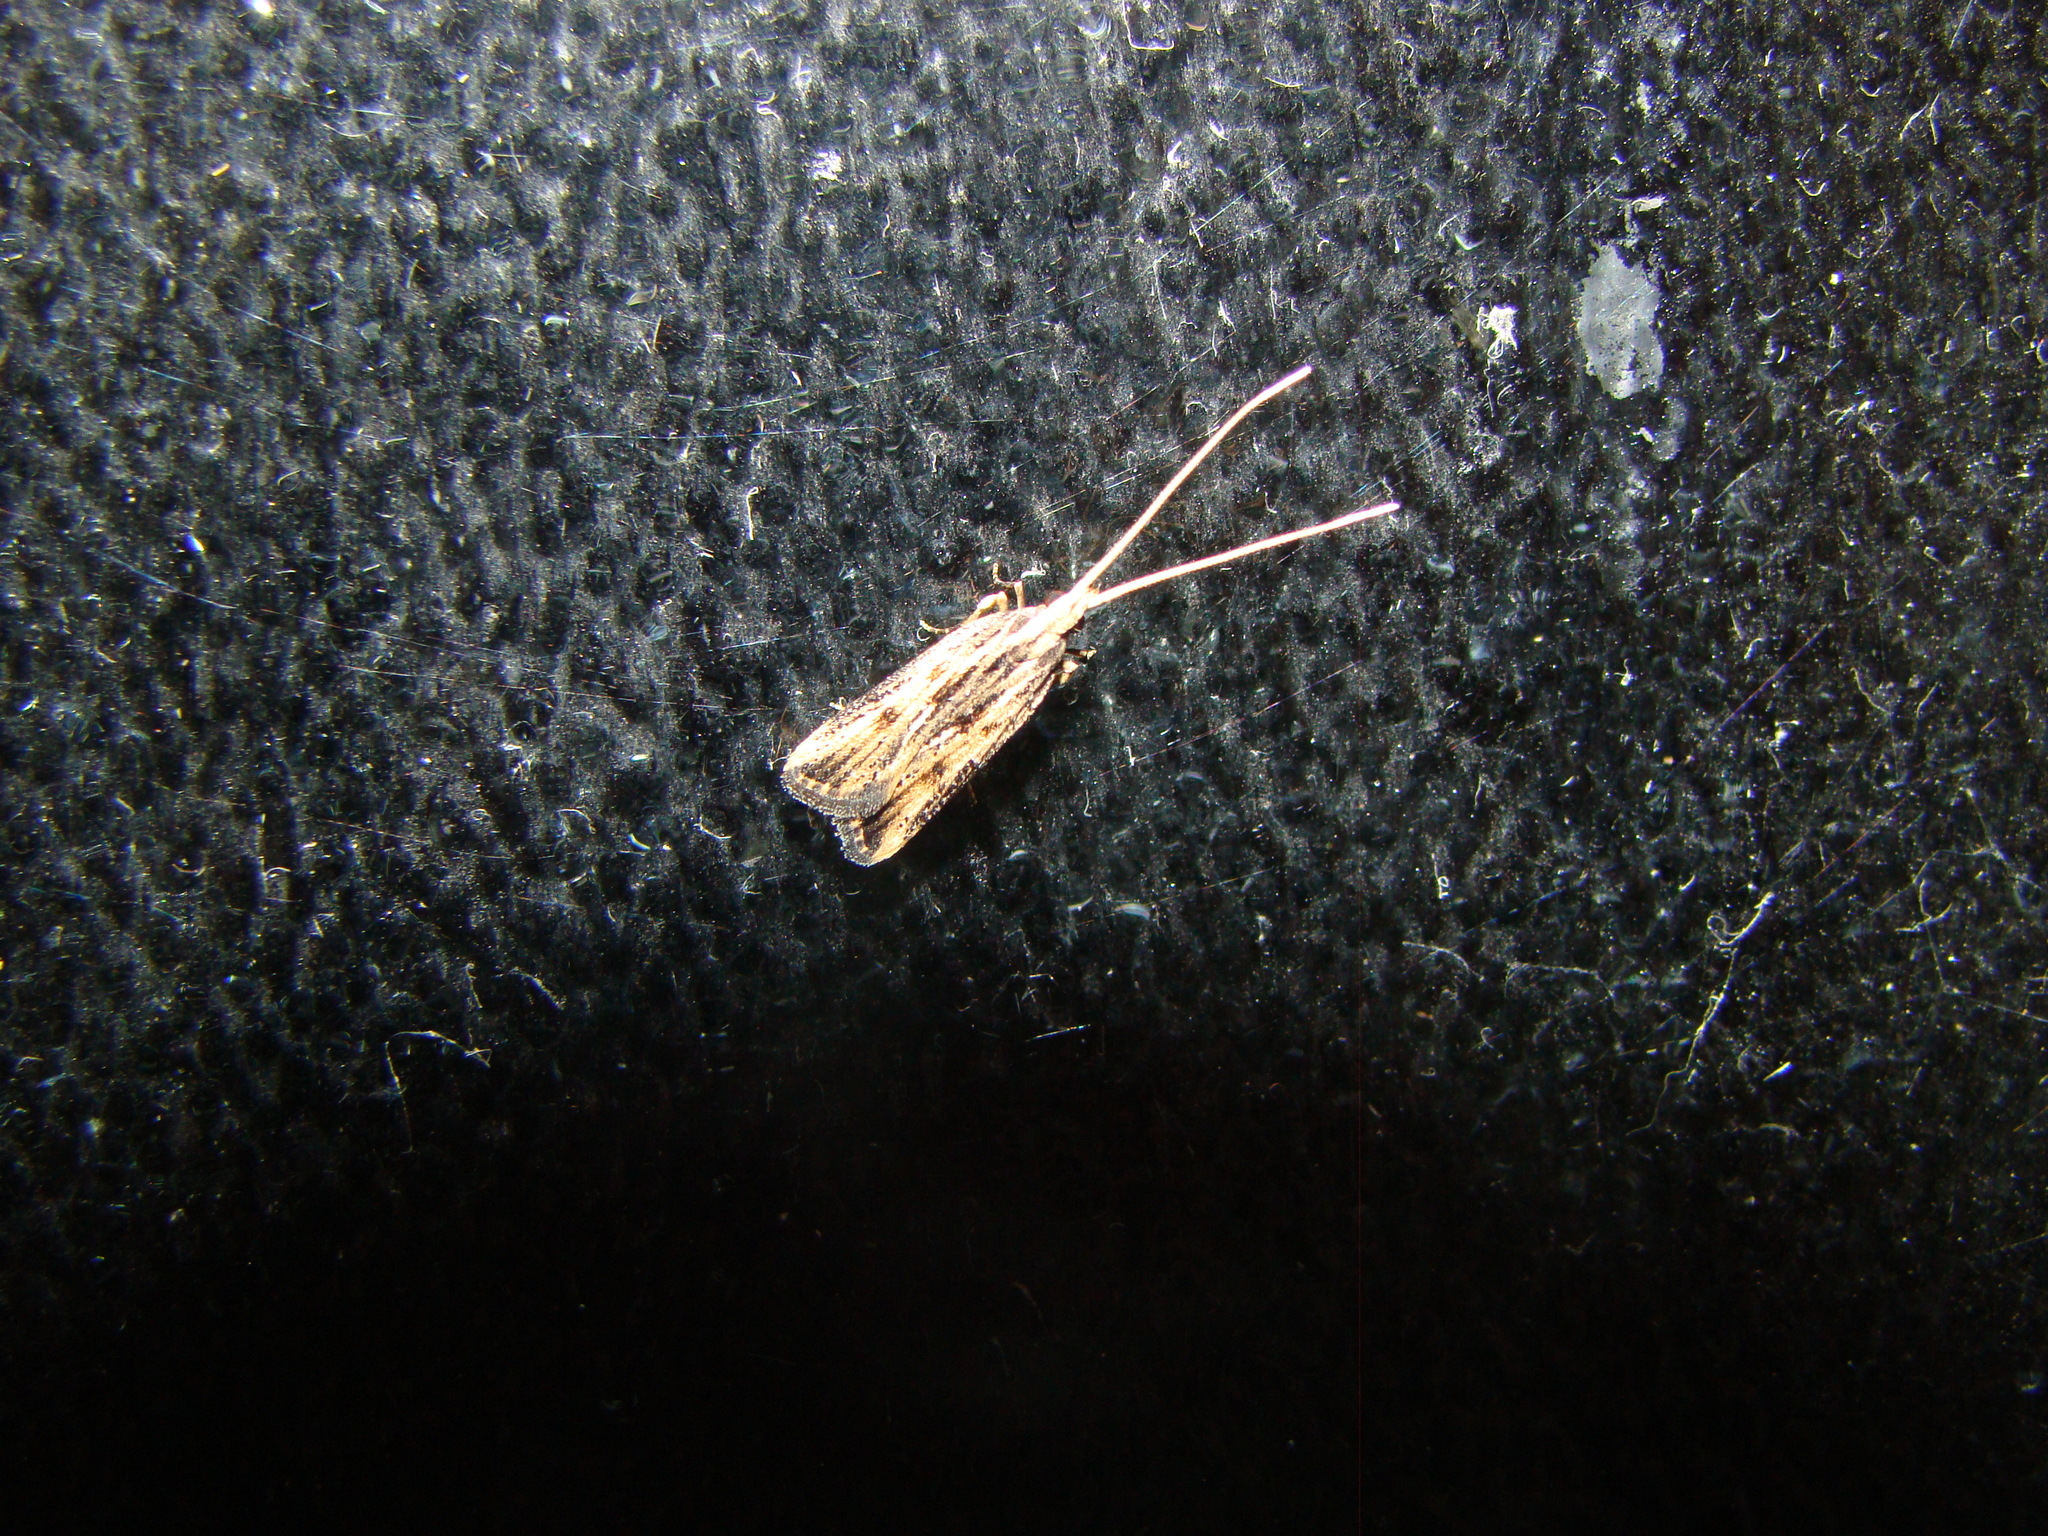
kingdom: Animalia
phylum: Arthropoda
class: Insecta
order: Lepidoptera
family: Lecithoceridae
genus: Sarisophora
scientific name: Sarisophora leucoscia
